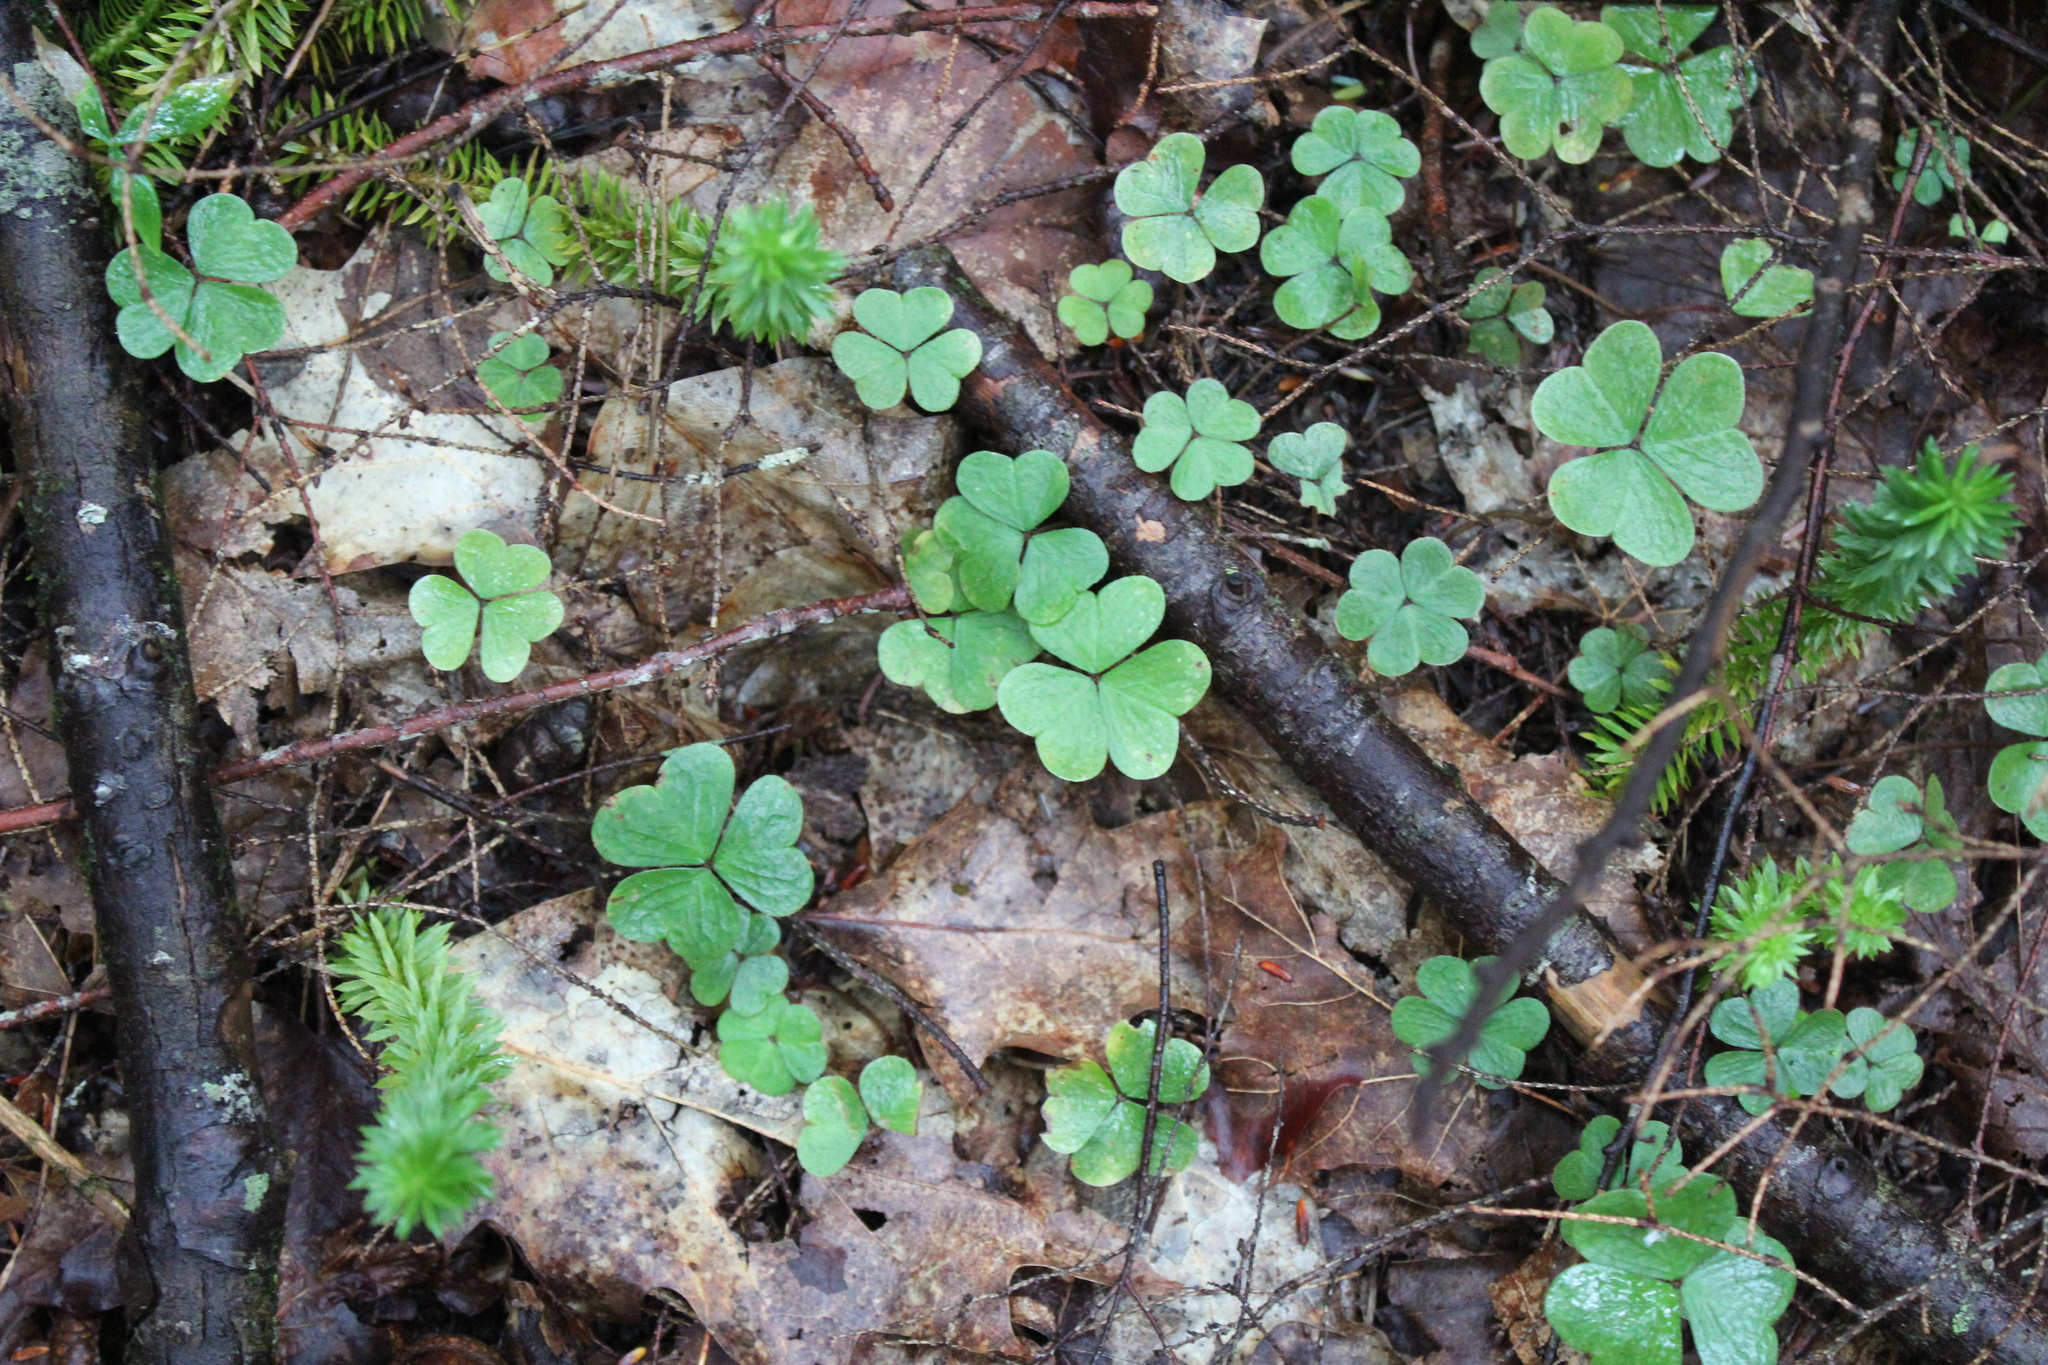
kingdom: Plantae
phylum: Tracheophyta
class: Magnoliopsida
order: Oxalidales
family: Oxalidaceae
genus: Oxalis
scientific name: Oxalis montana
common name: American wood-sorrel
